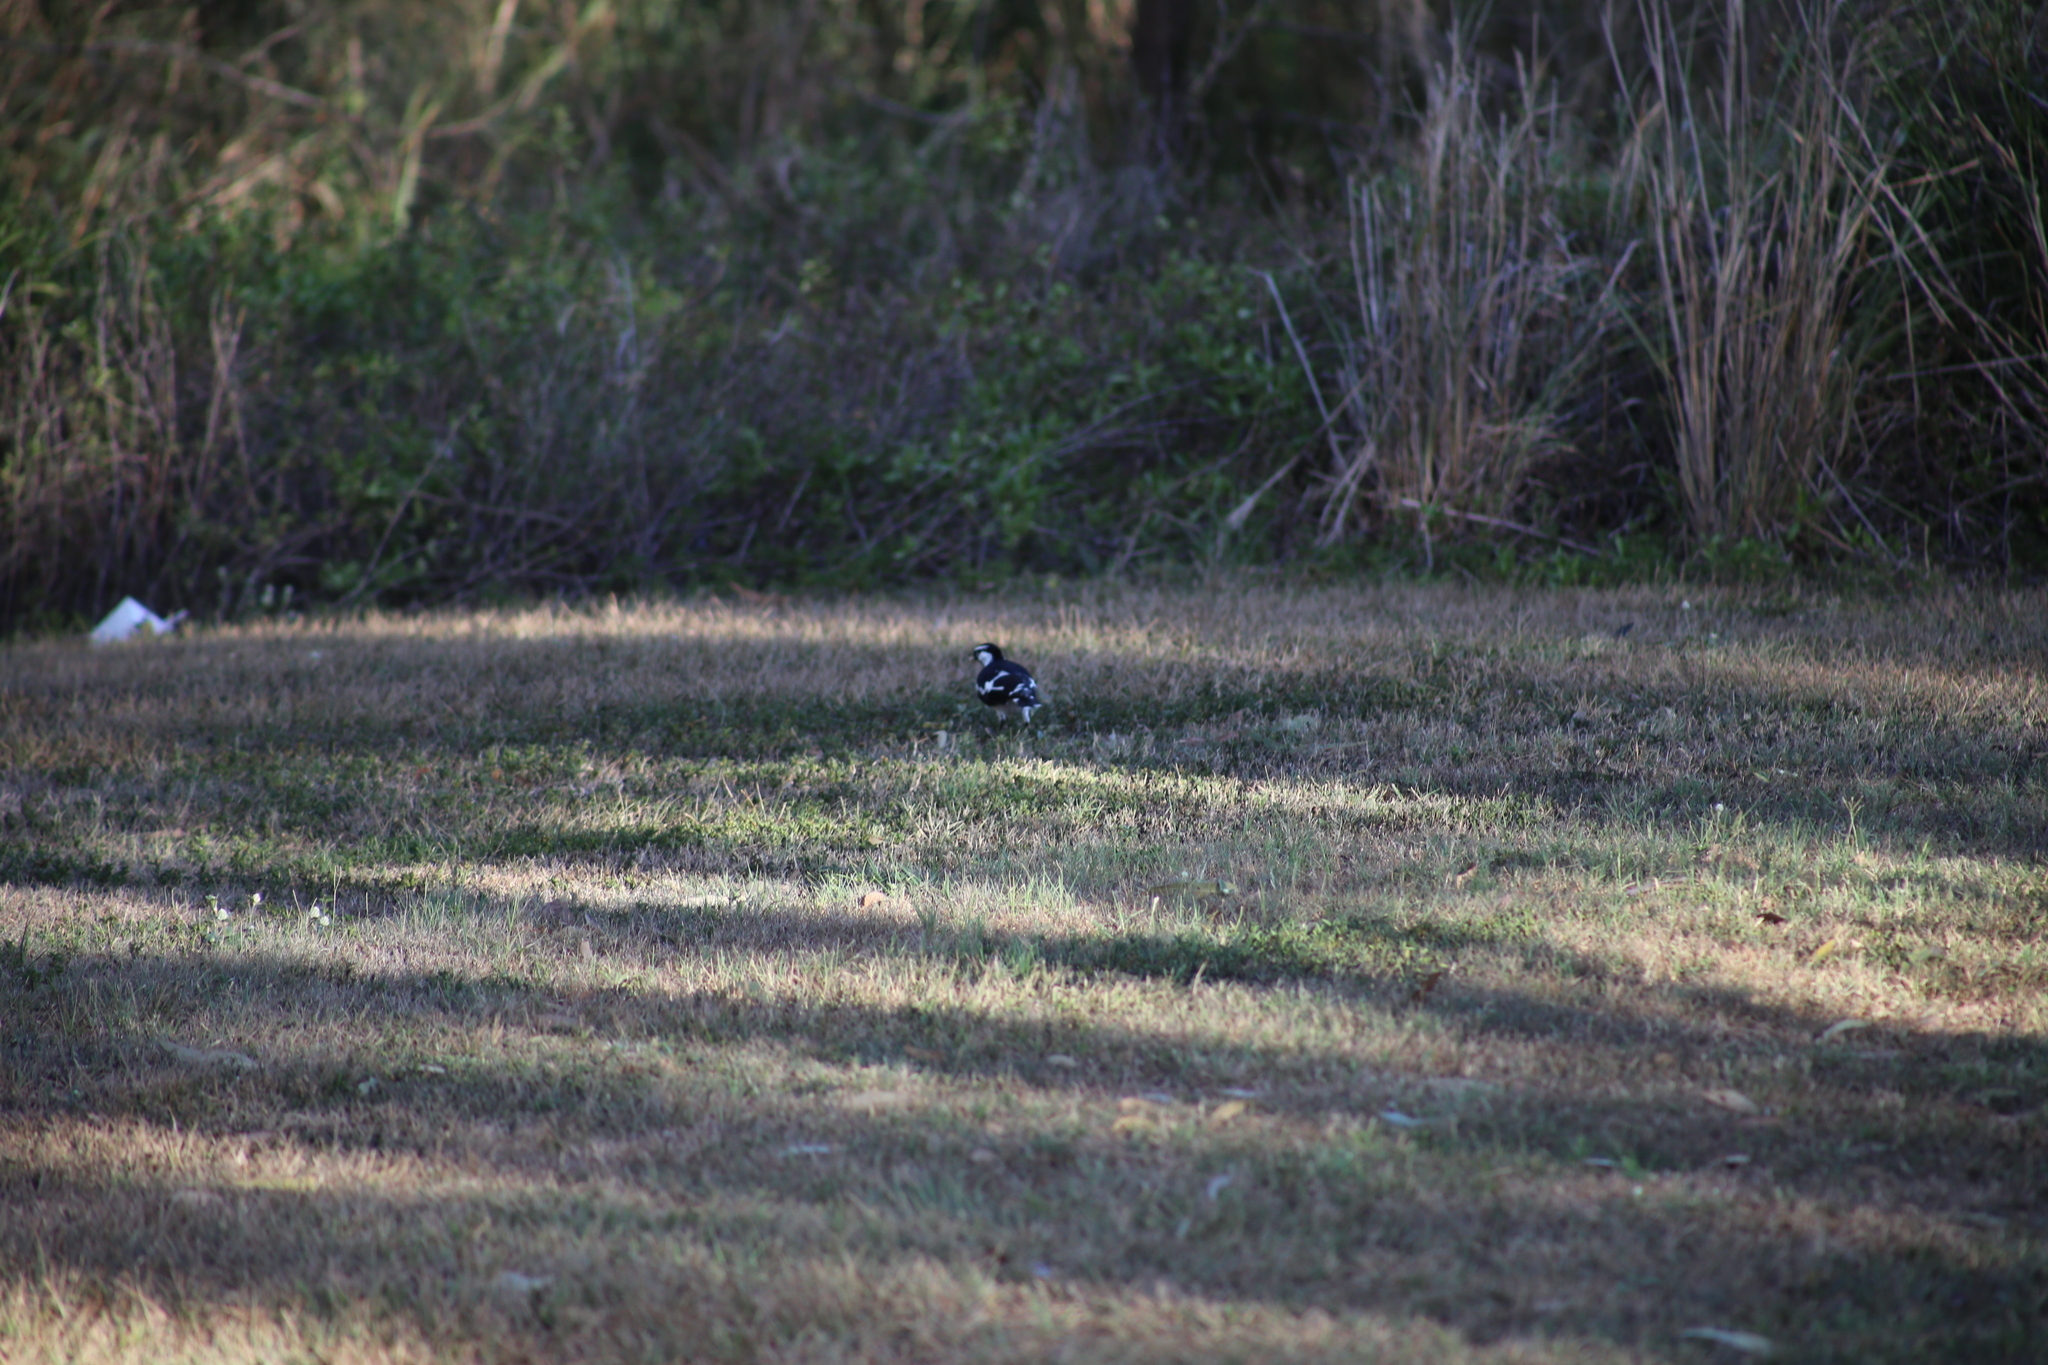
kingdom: Animalia
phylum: Chordata
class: Aves
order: Passeriformes
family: Monarchidae
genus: Grallina
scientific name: Grallina cyanoleuca
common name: Magpie-lark
